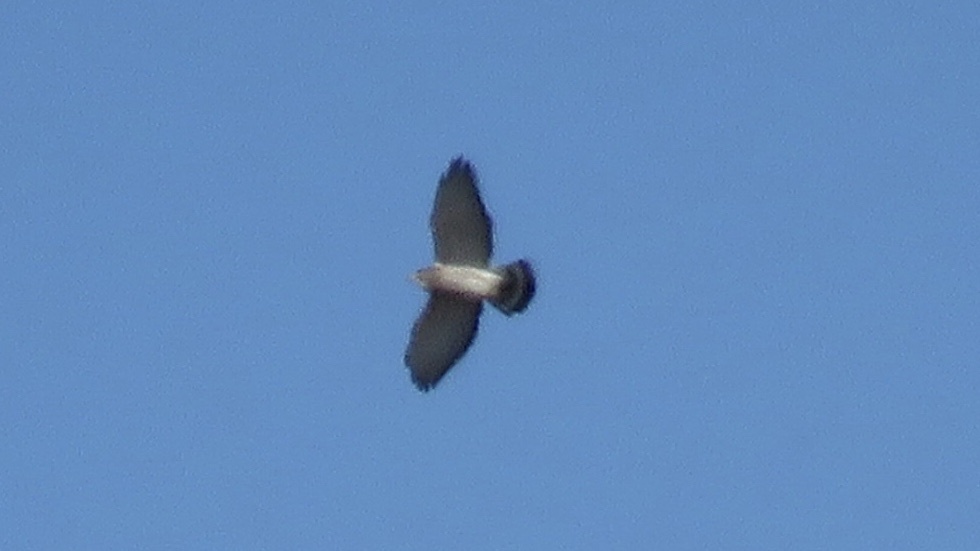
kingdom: Animalia
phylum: Chordata
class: Aves
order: Accipitriformes
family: Accipitridae
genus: Buteo
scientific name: Buteo platypterus
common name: Broad-winged hawk
